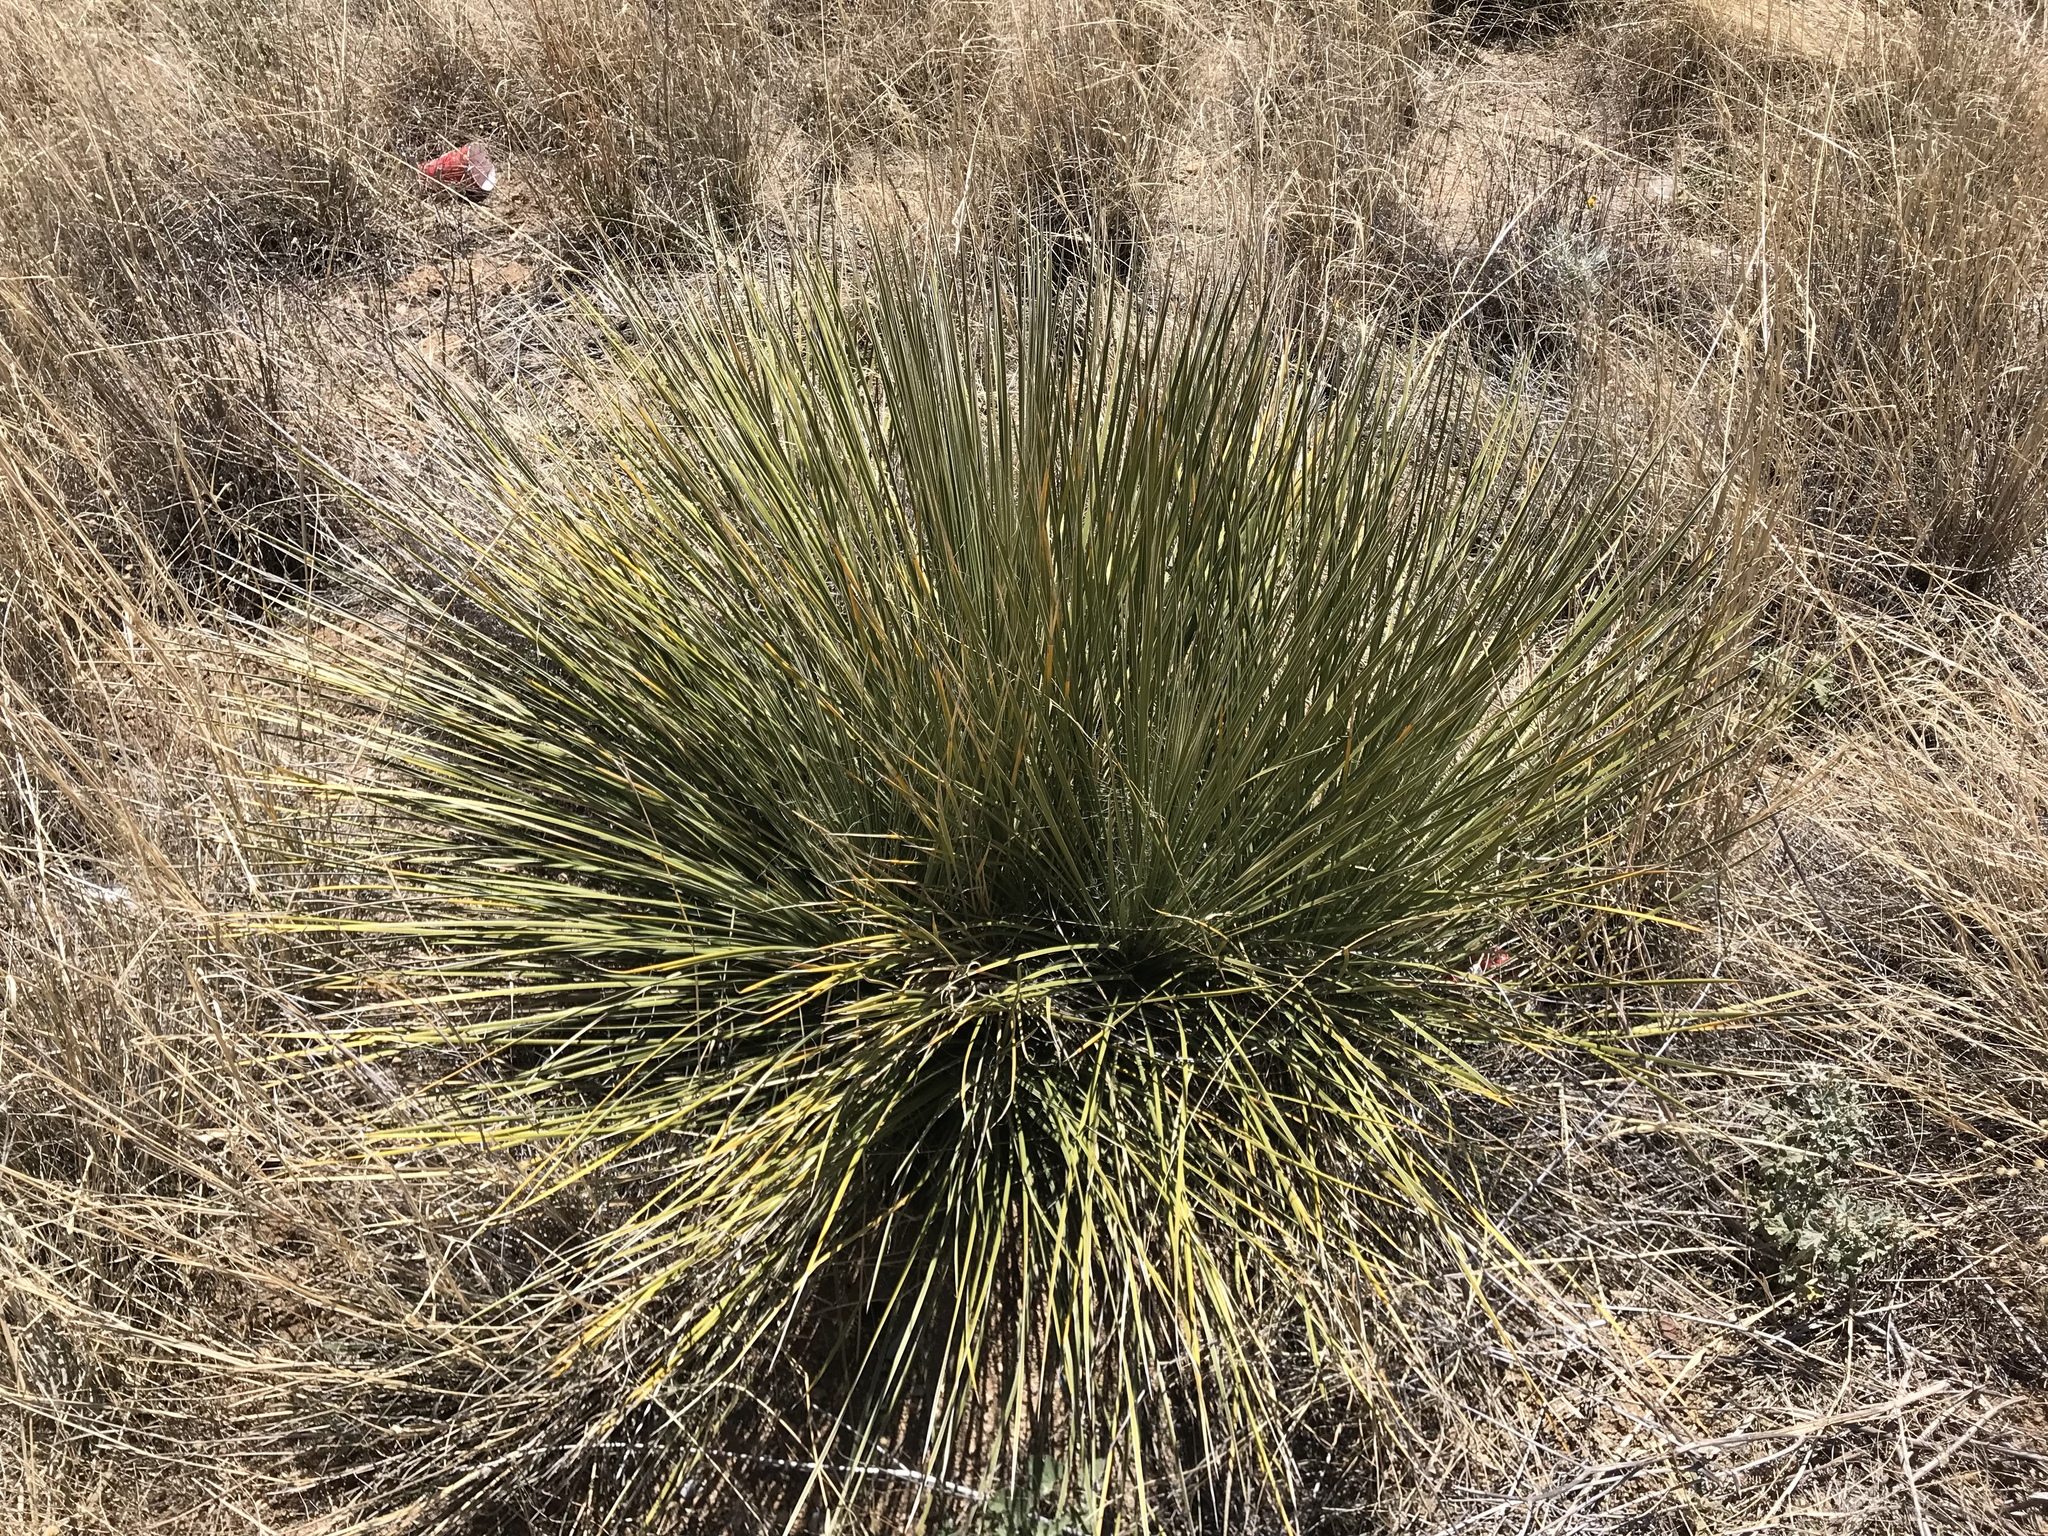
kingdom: Plantae
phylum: Tracheophyta
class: Liliopsida
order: Asparagales
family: Asparagaceae
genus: Yucca
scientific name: Yucca elata
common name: Palmella
